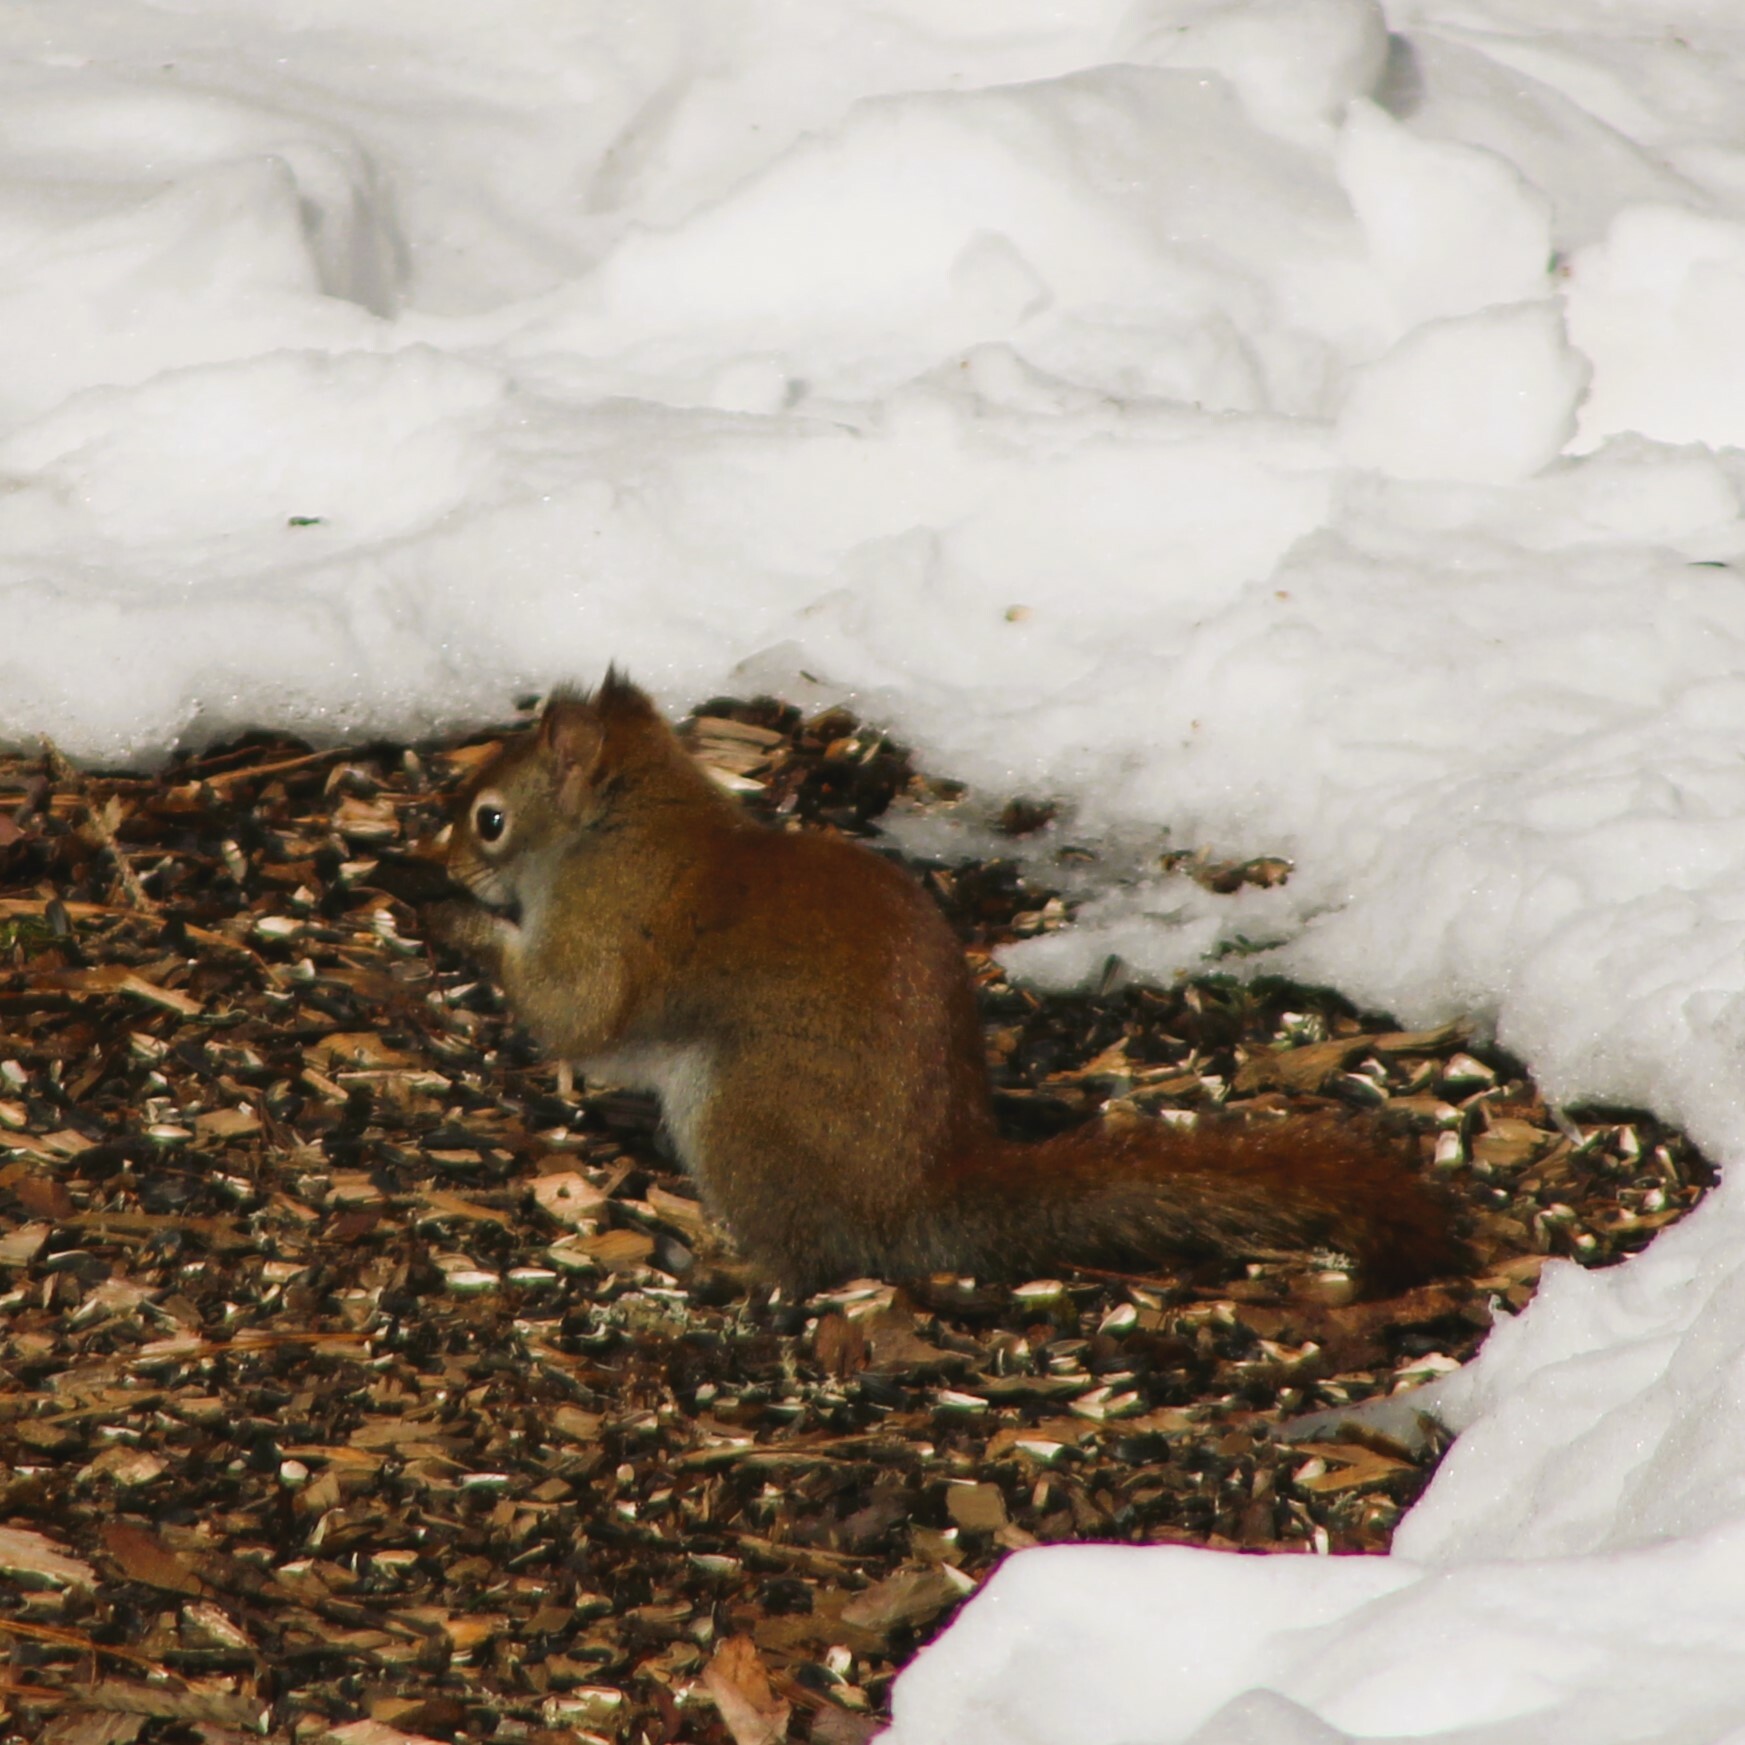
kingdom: Animalia
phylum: Chordata
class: Mammalia
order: Rodentia
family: Sciuridae
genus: Tamiasciurus
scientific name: Tamiasciurus hudsonicus
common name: Red squirrel
